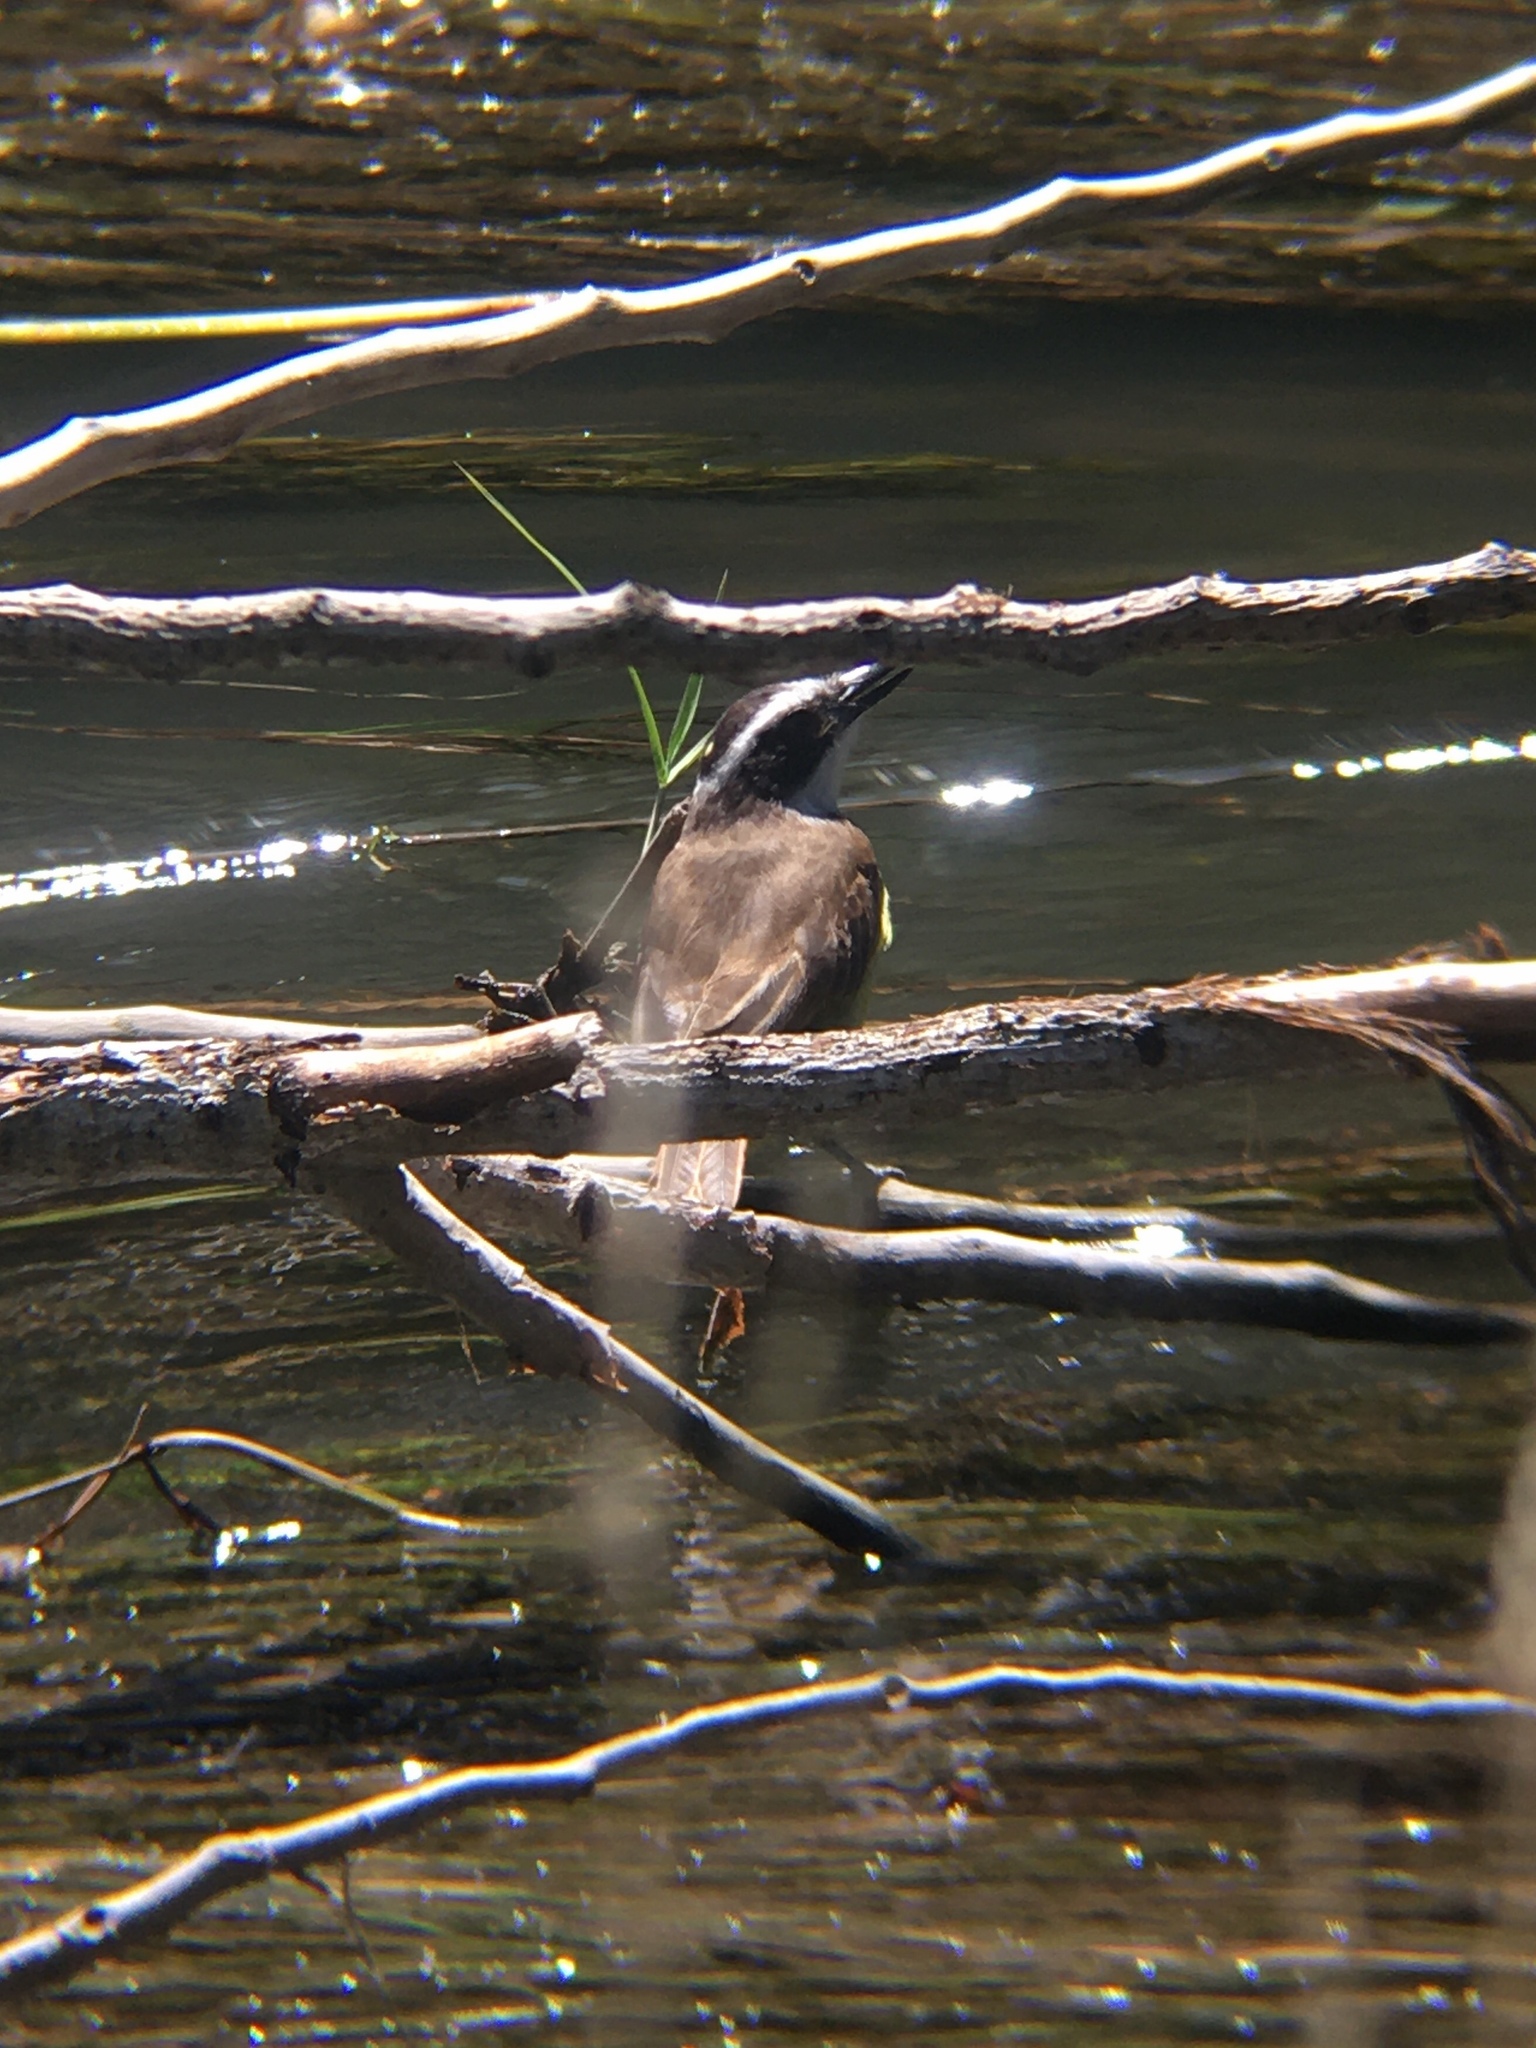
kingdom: Animalia
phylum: Chordata
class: Aves
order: Passeriformes
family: Tyrannidae
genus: Pitangus
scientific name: Pitangus sulphuratus
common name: Great kiskadee
